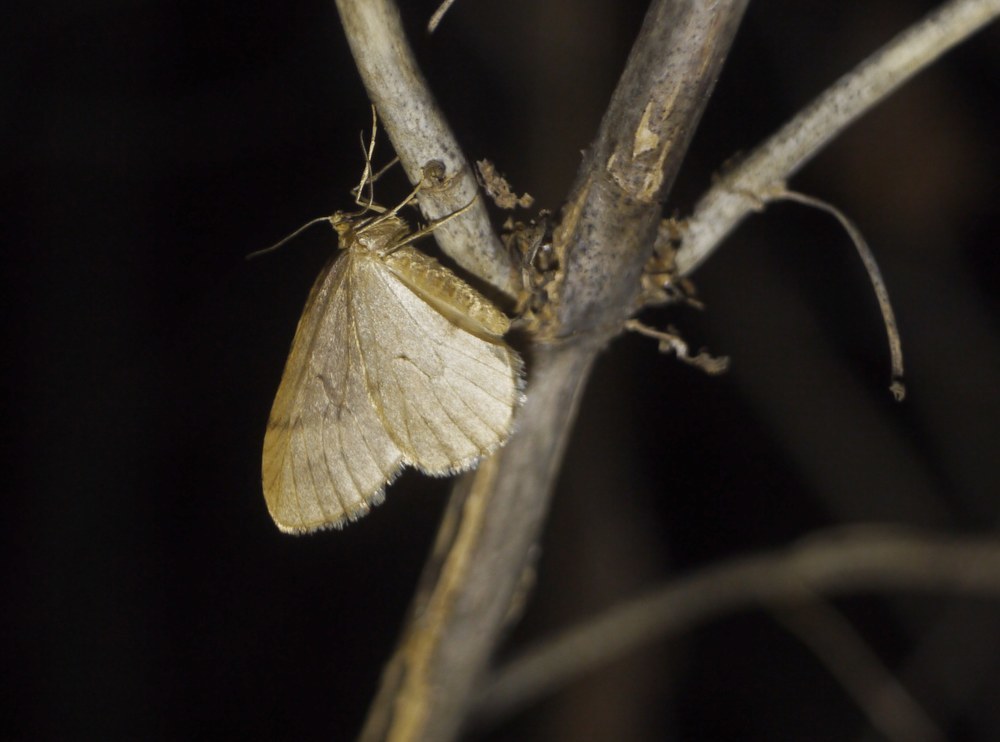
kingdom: Animalia
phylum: Arthropoda
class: Insecta
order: Lepidoptera
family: Geometridae
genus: Operophtera
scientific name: Operophtera brumata
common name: Winter moth
